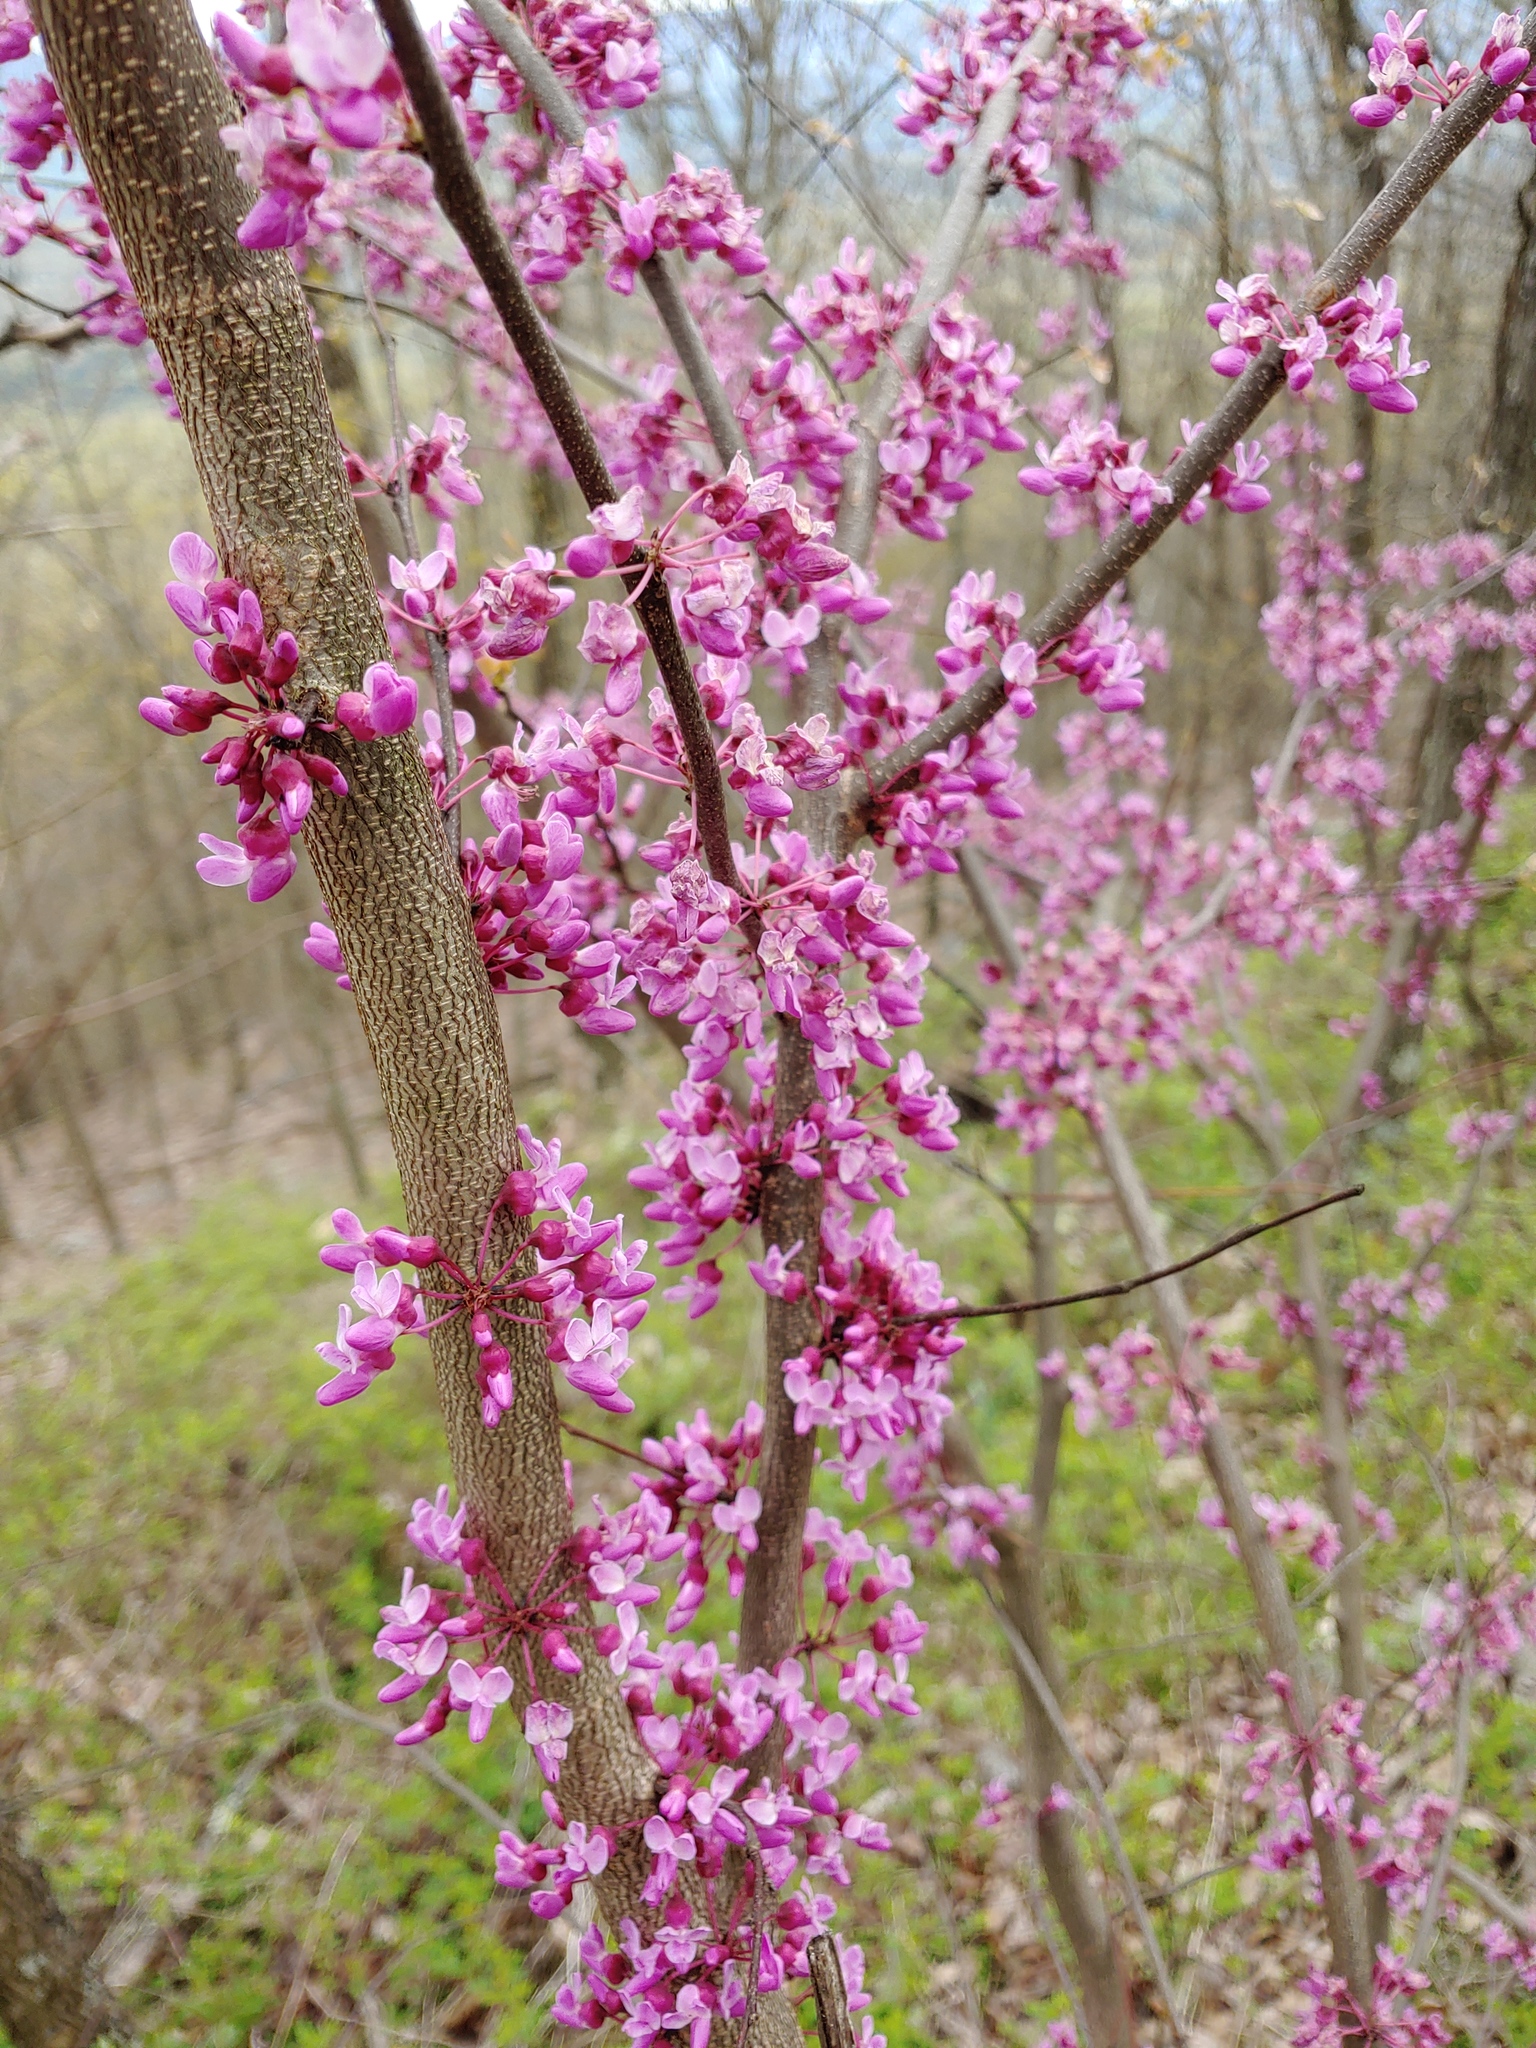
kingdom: Plantae
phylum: Tracheophyta
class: Magnoliopsida
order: Fabales
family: Fabaceae
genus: Cercis
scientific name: Cercis canadensis
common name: Eastern redbud
